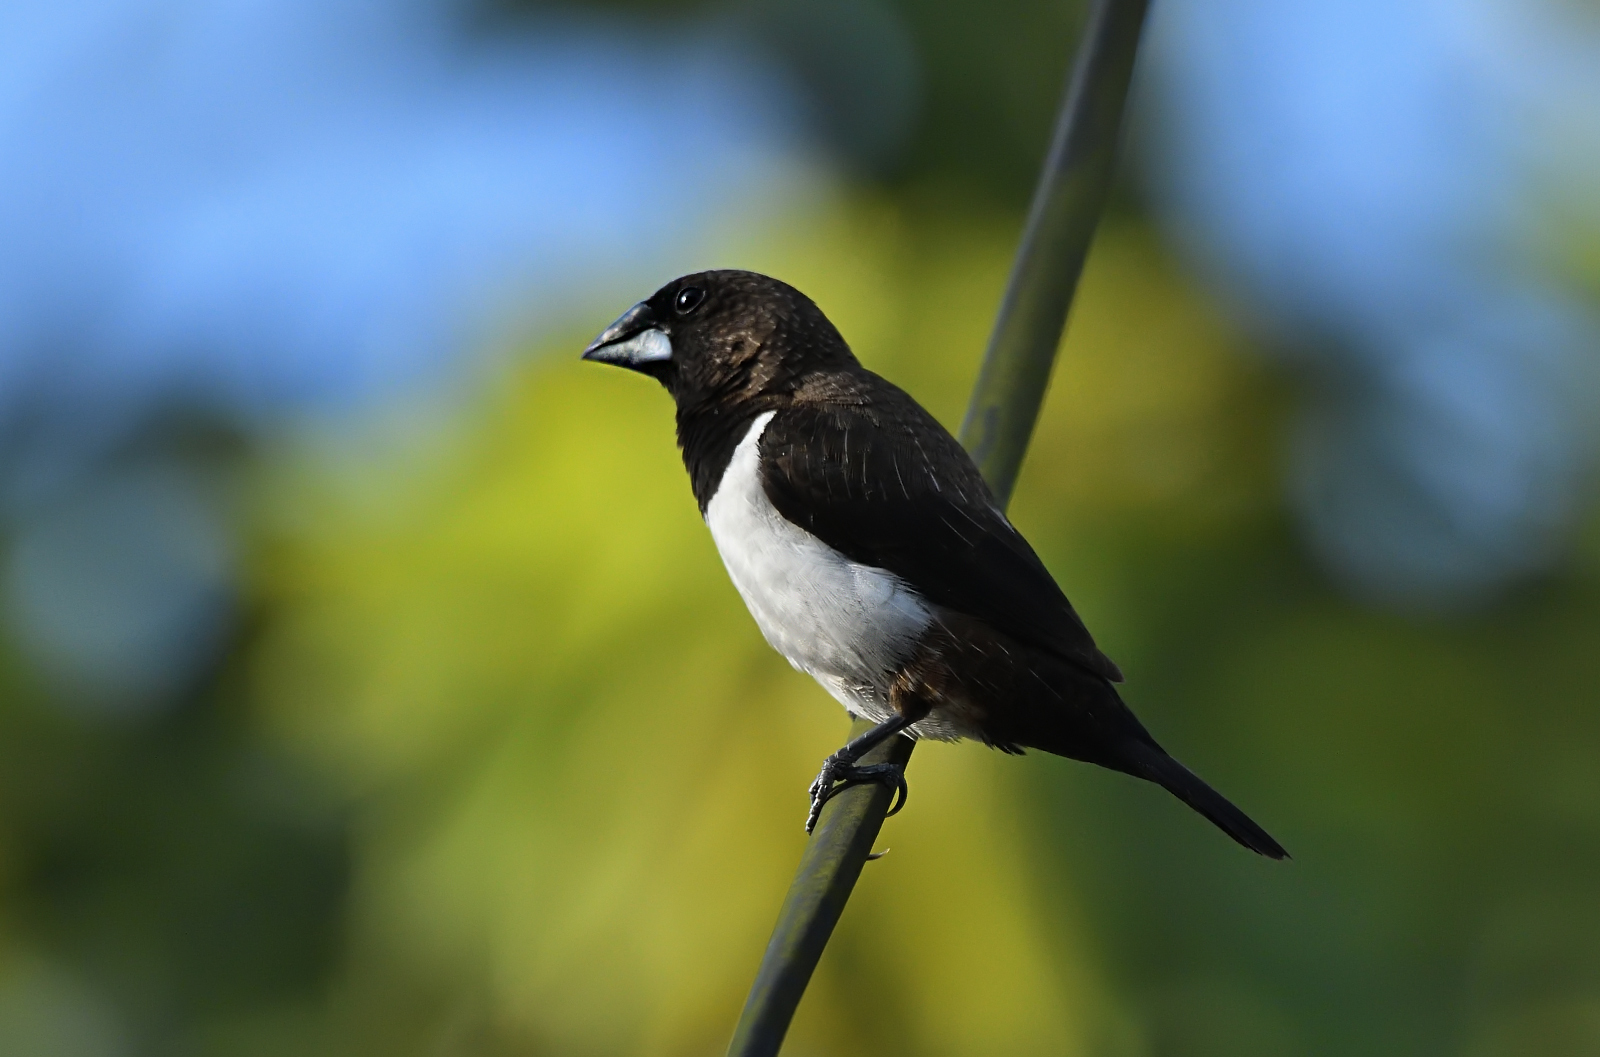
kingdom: Animalia
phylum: Chordata
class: Aves
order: Passeriformes
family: Estrildidae
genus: Lonchura
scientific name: Lonchura striata
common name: White-rumped munia
